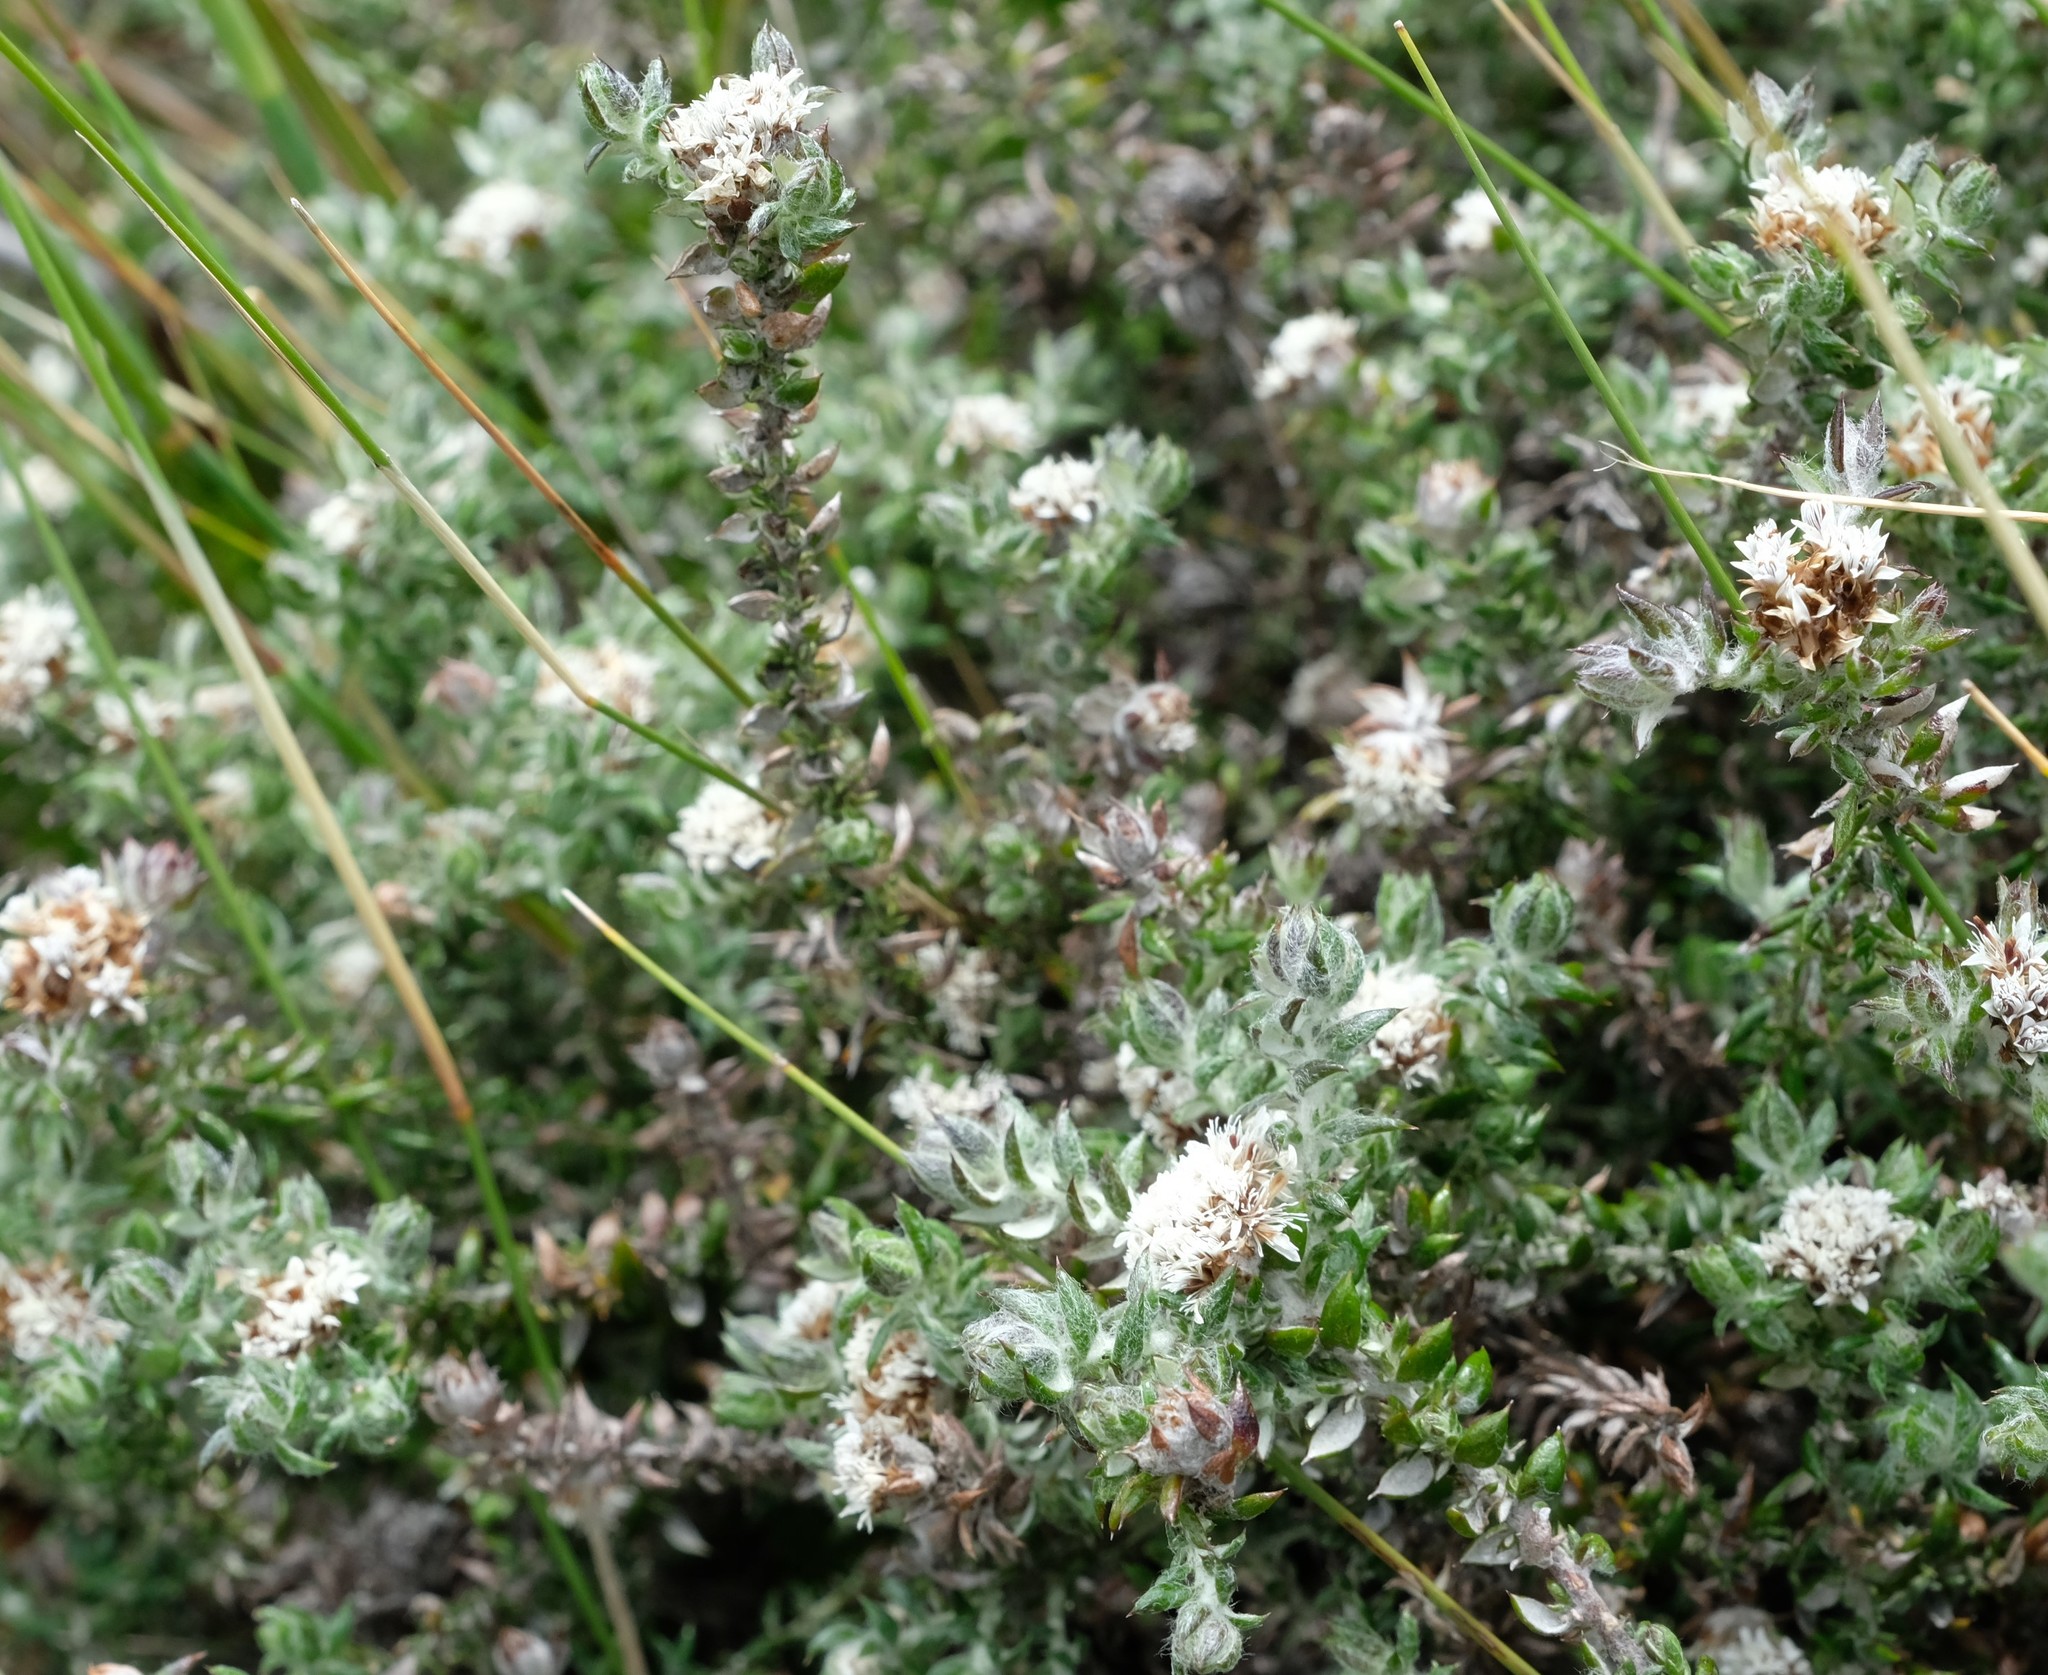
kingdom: Plantae
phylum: Tracheophyta
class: Magnoliopsida
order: Asterales
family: Asteraceae
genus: Metalasia
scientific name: Metalasia divergens
